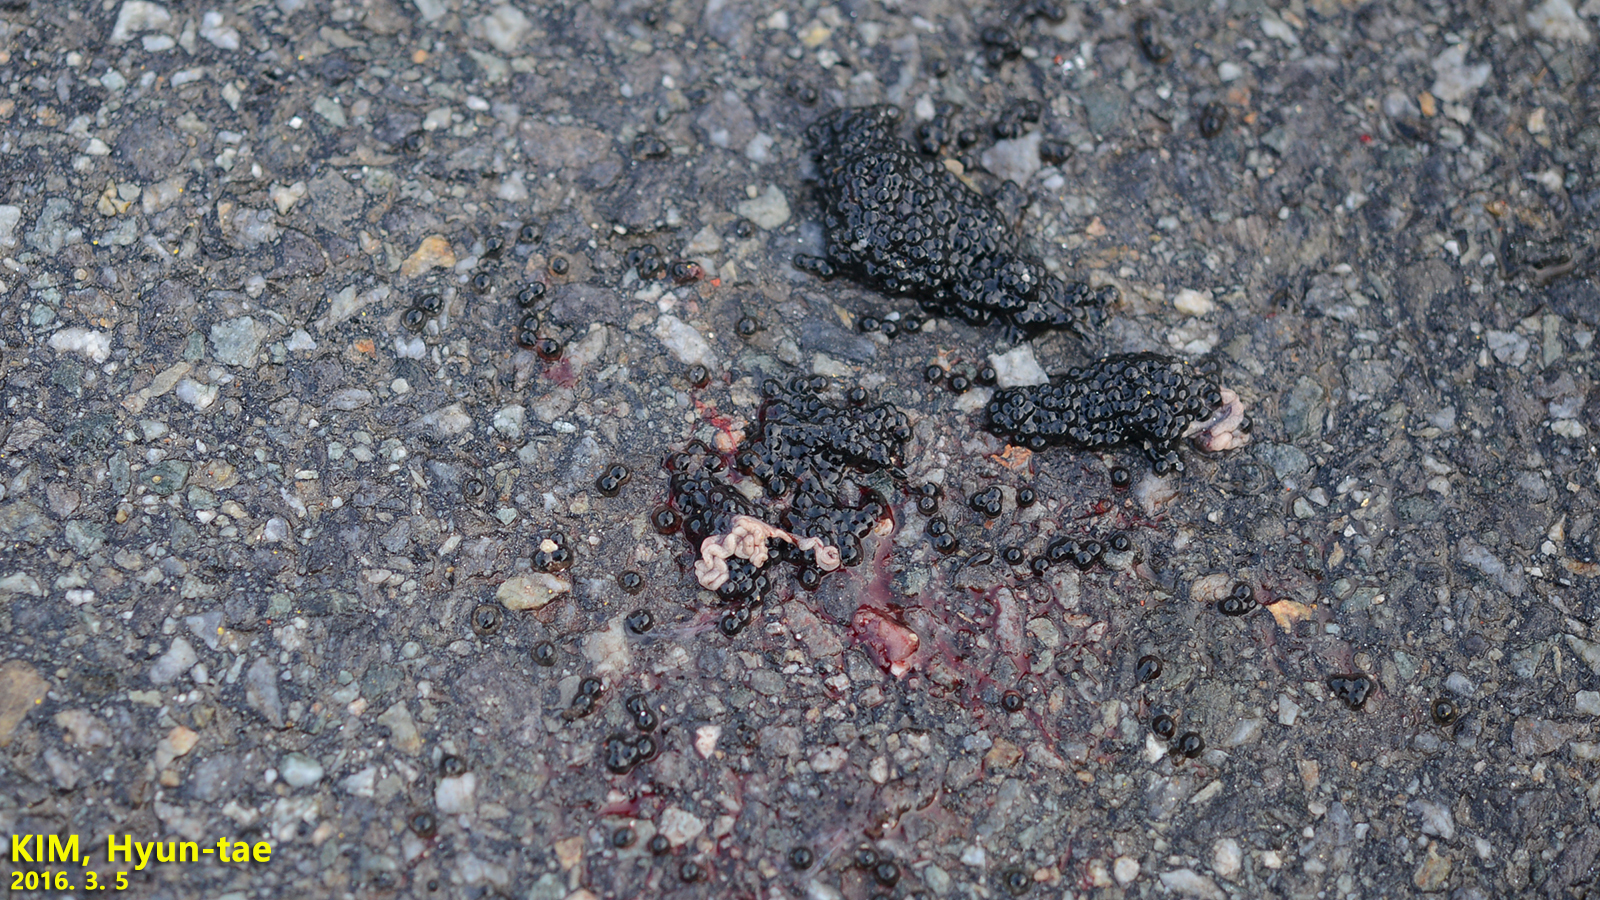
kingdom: Animalia
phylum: Chordata
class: Amphibia
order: Anura
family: Ranidae
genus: Rana
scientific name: Rana uenoi
